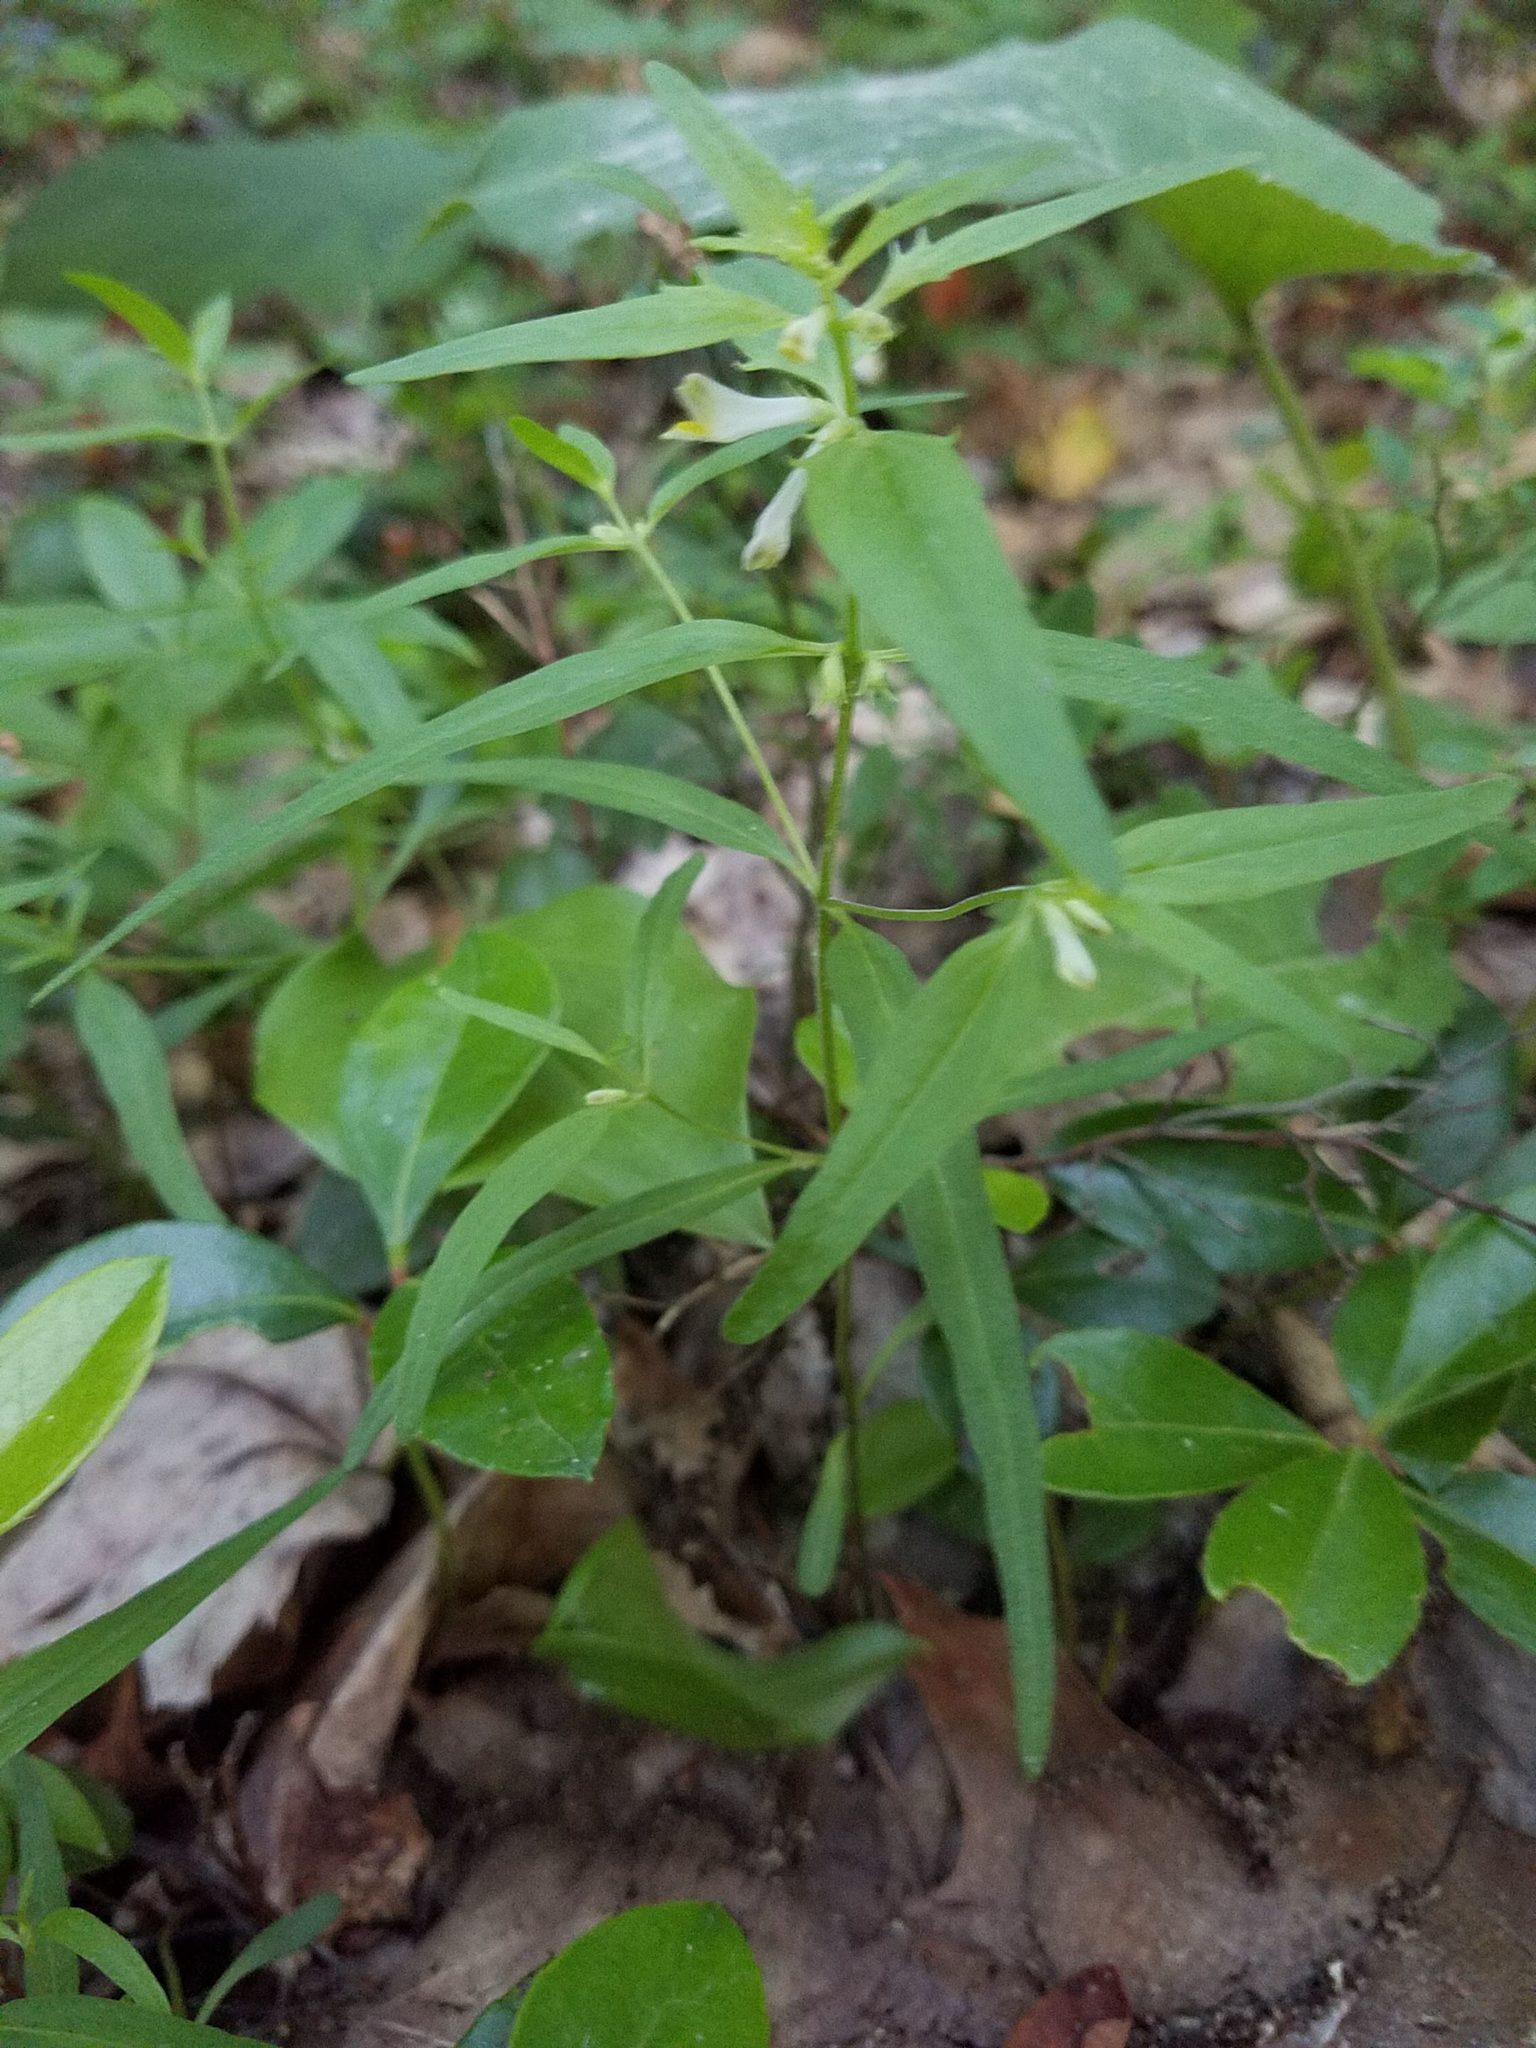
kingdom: Plantae
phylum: Tracheophyta
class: Magnoliopsida
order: Lamiales
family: Orobanchaceae
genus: Melampyrum
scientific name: Melampyrum lineare
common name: American cow-wheat
